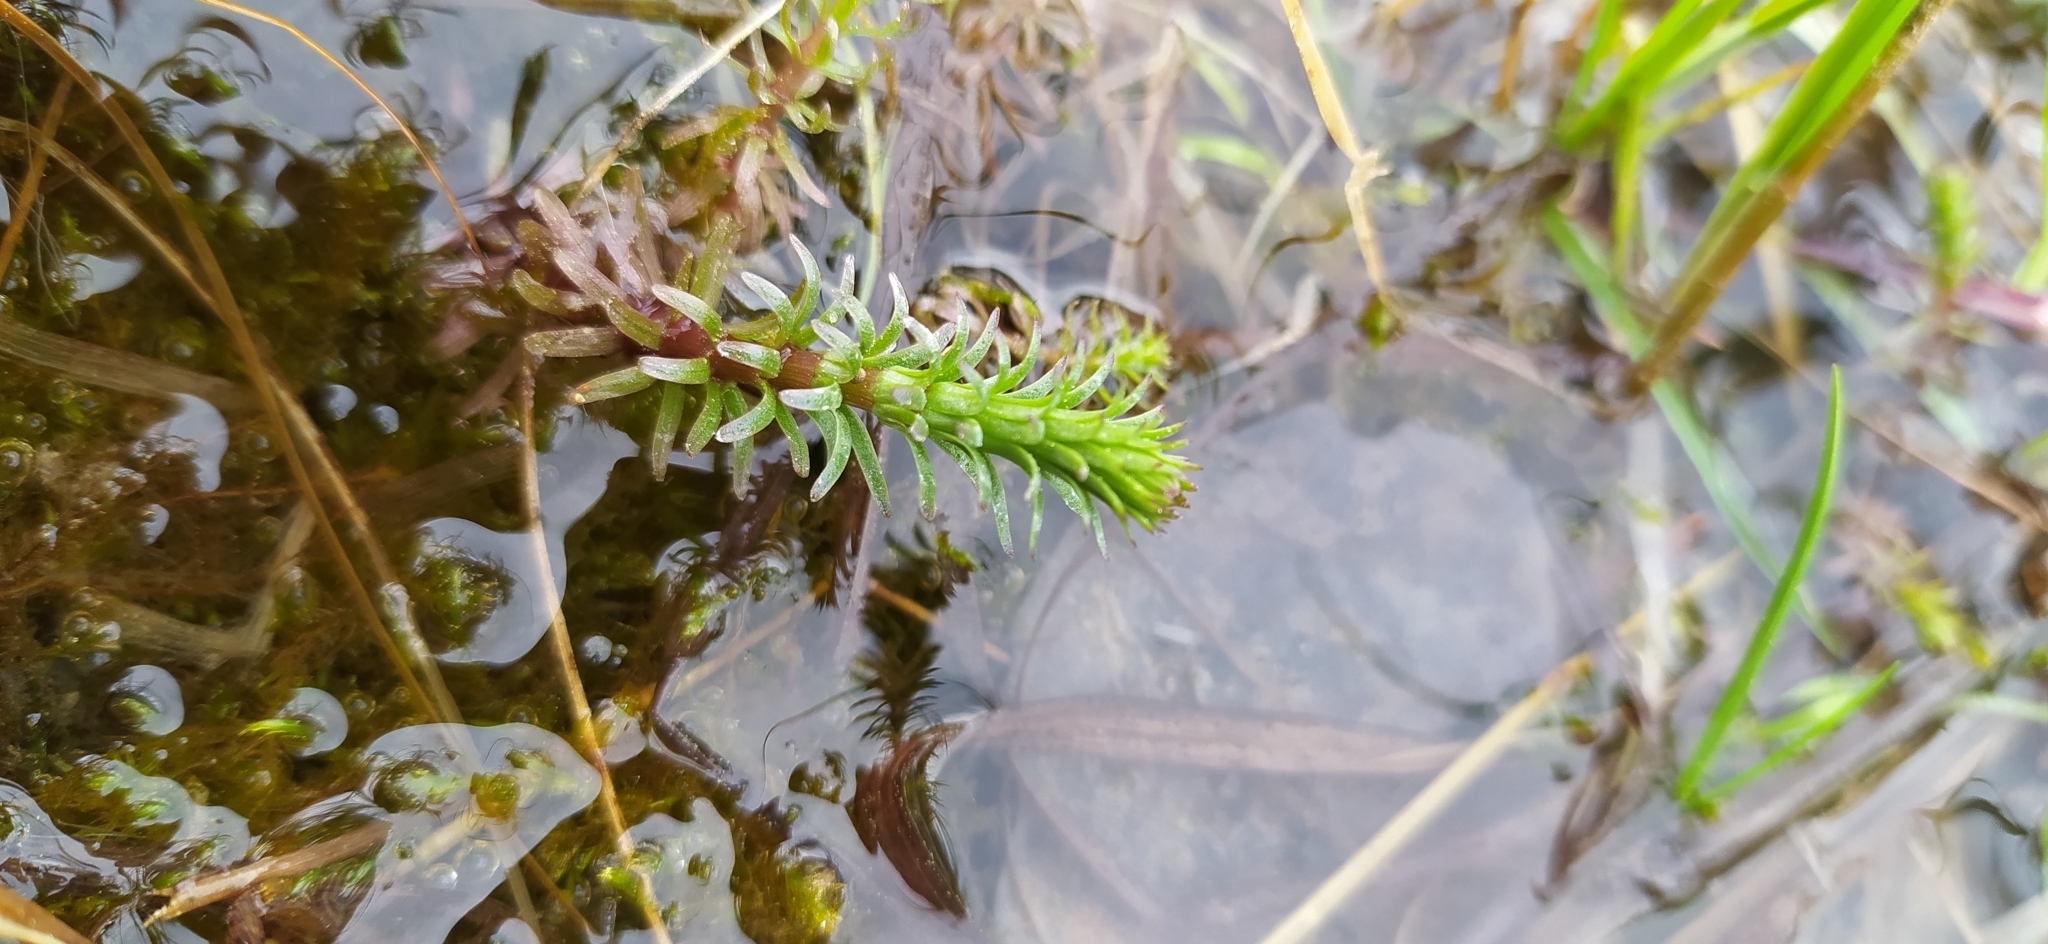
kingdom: Plantae
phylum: Tracheophyta
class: Magnoliopsida
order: Lamiales
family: Plantaginaceae
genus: Hippuris
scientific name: Hippuris vulgaris
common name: Mare's-tail
